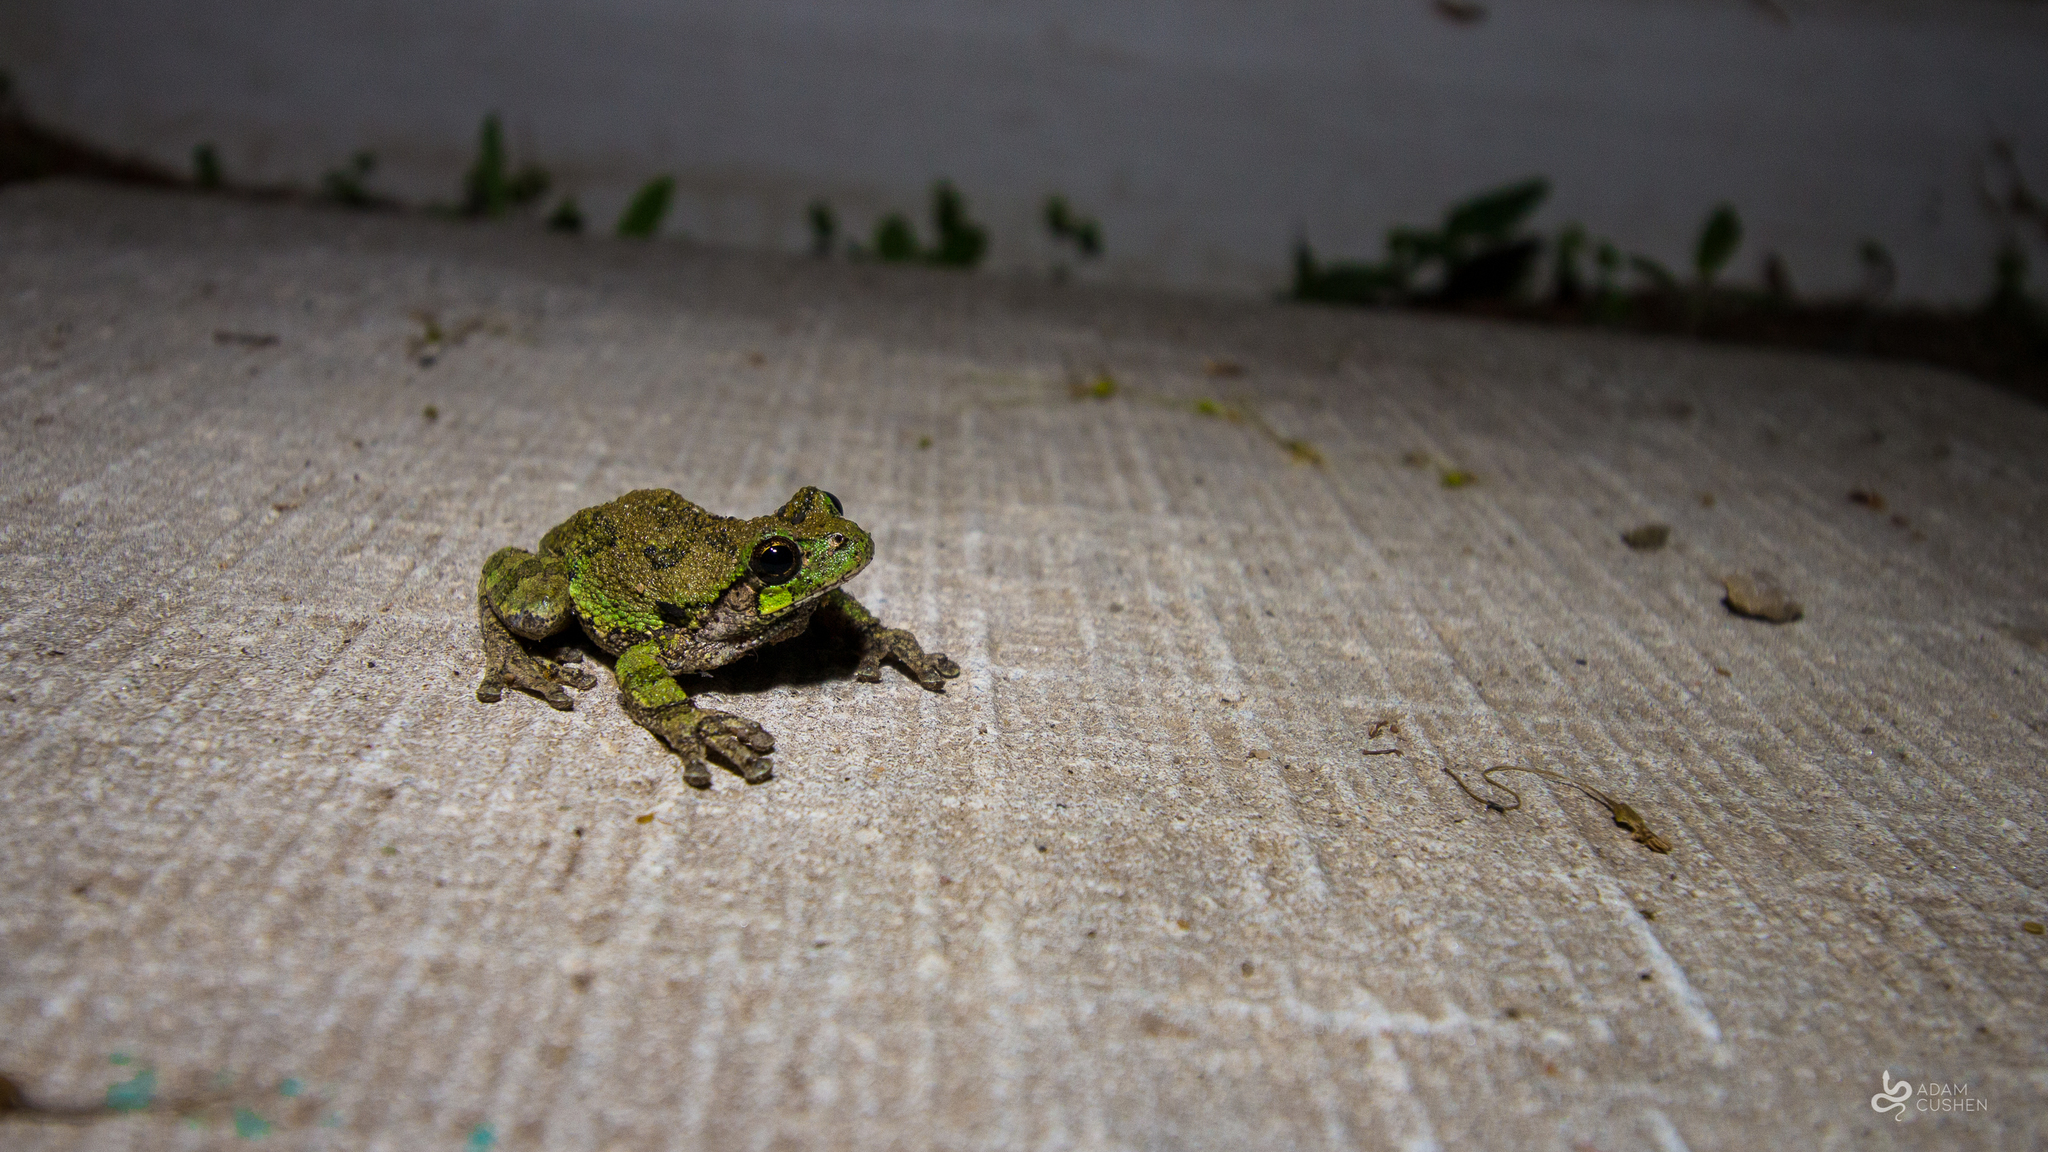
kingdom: Animalia
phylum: Chordata
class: Amphibia
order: Anura
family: Hylidae
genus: Dryophytes
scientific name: Dryophytes versicolor
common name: Gray treefrog
